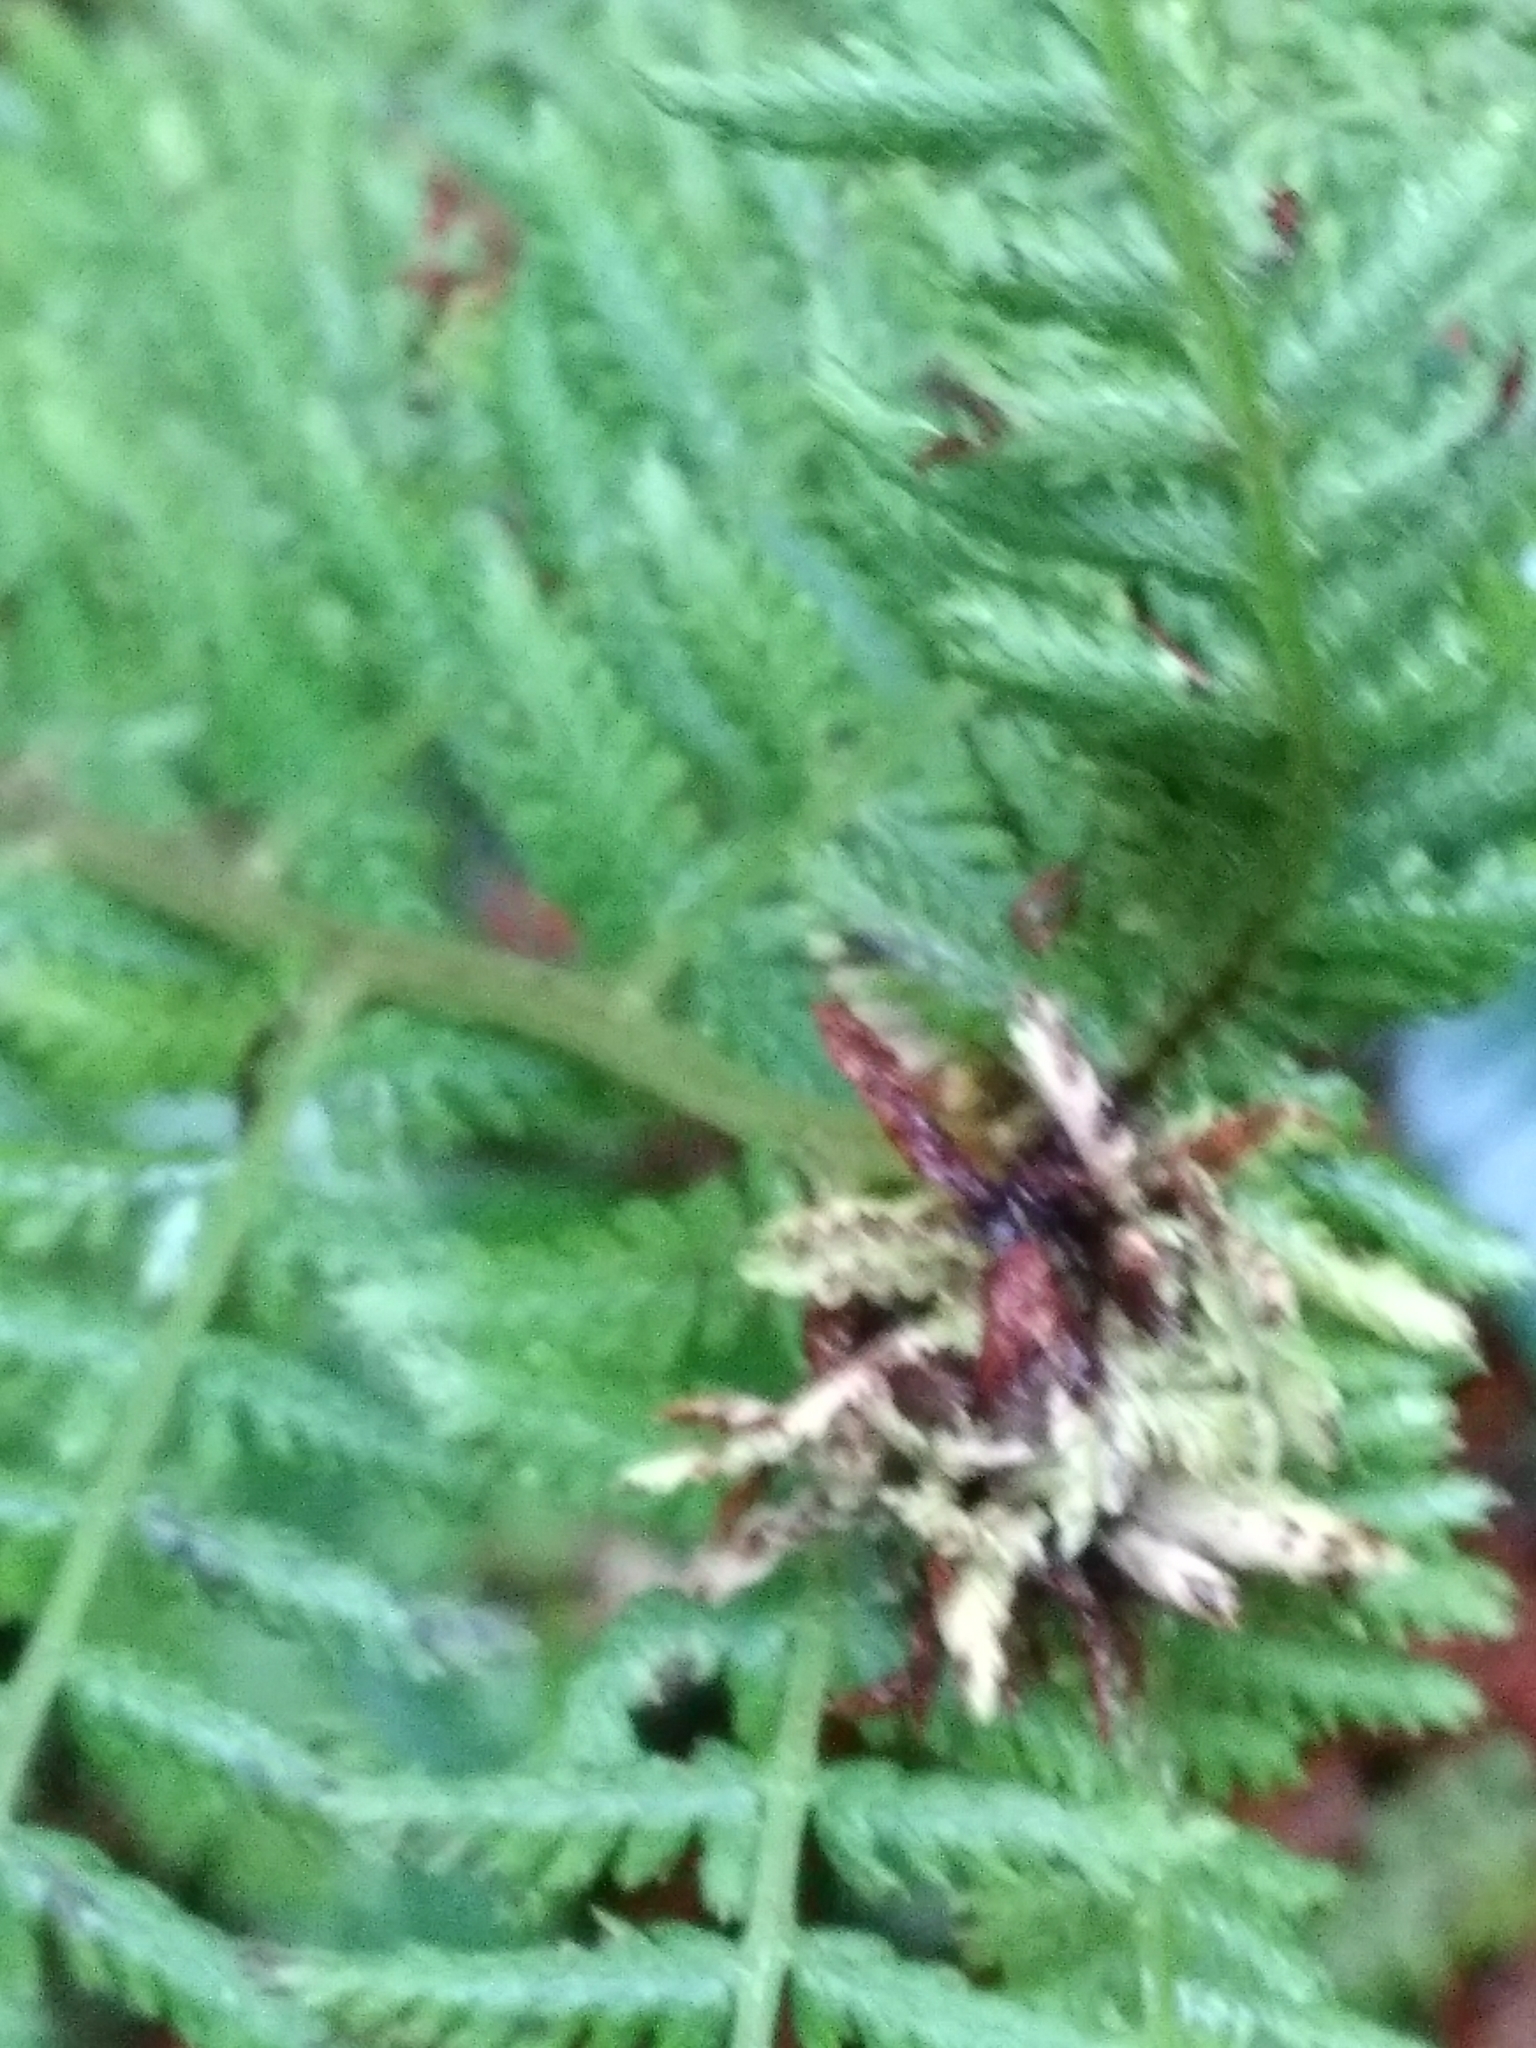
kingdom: Animalia
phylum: Arthropoda
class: Insecta
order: Diptera
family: Anthomyiidae
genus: Chirosia
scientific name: Chirosia betuleti
